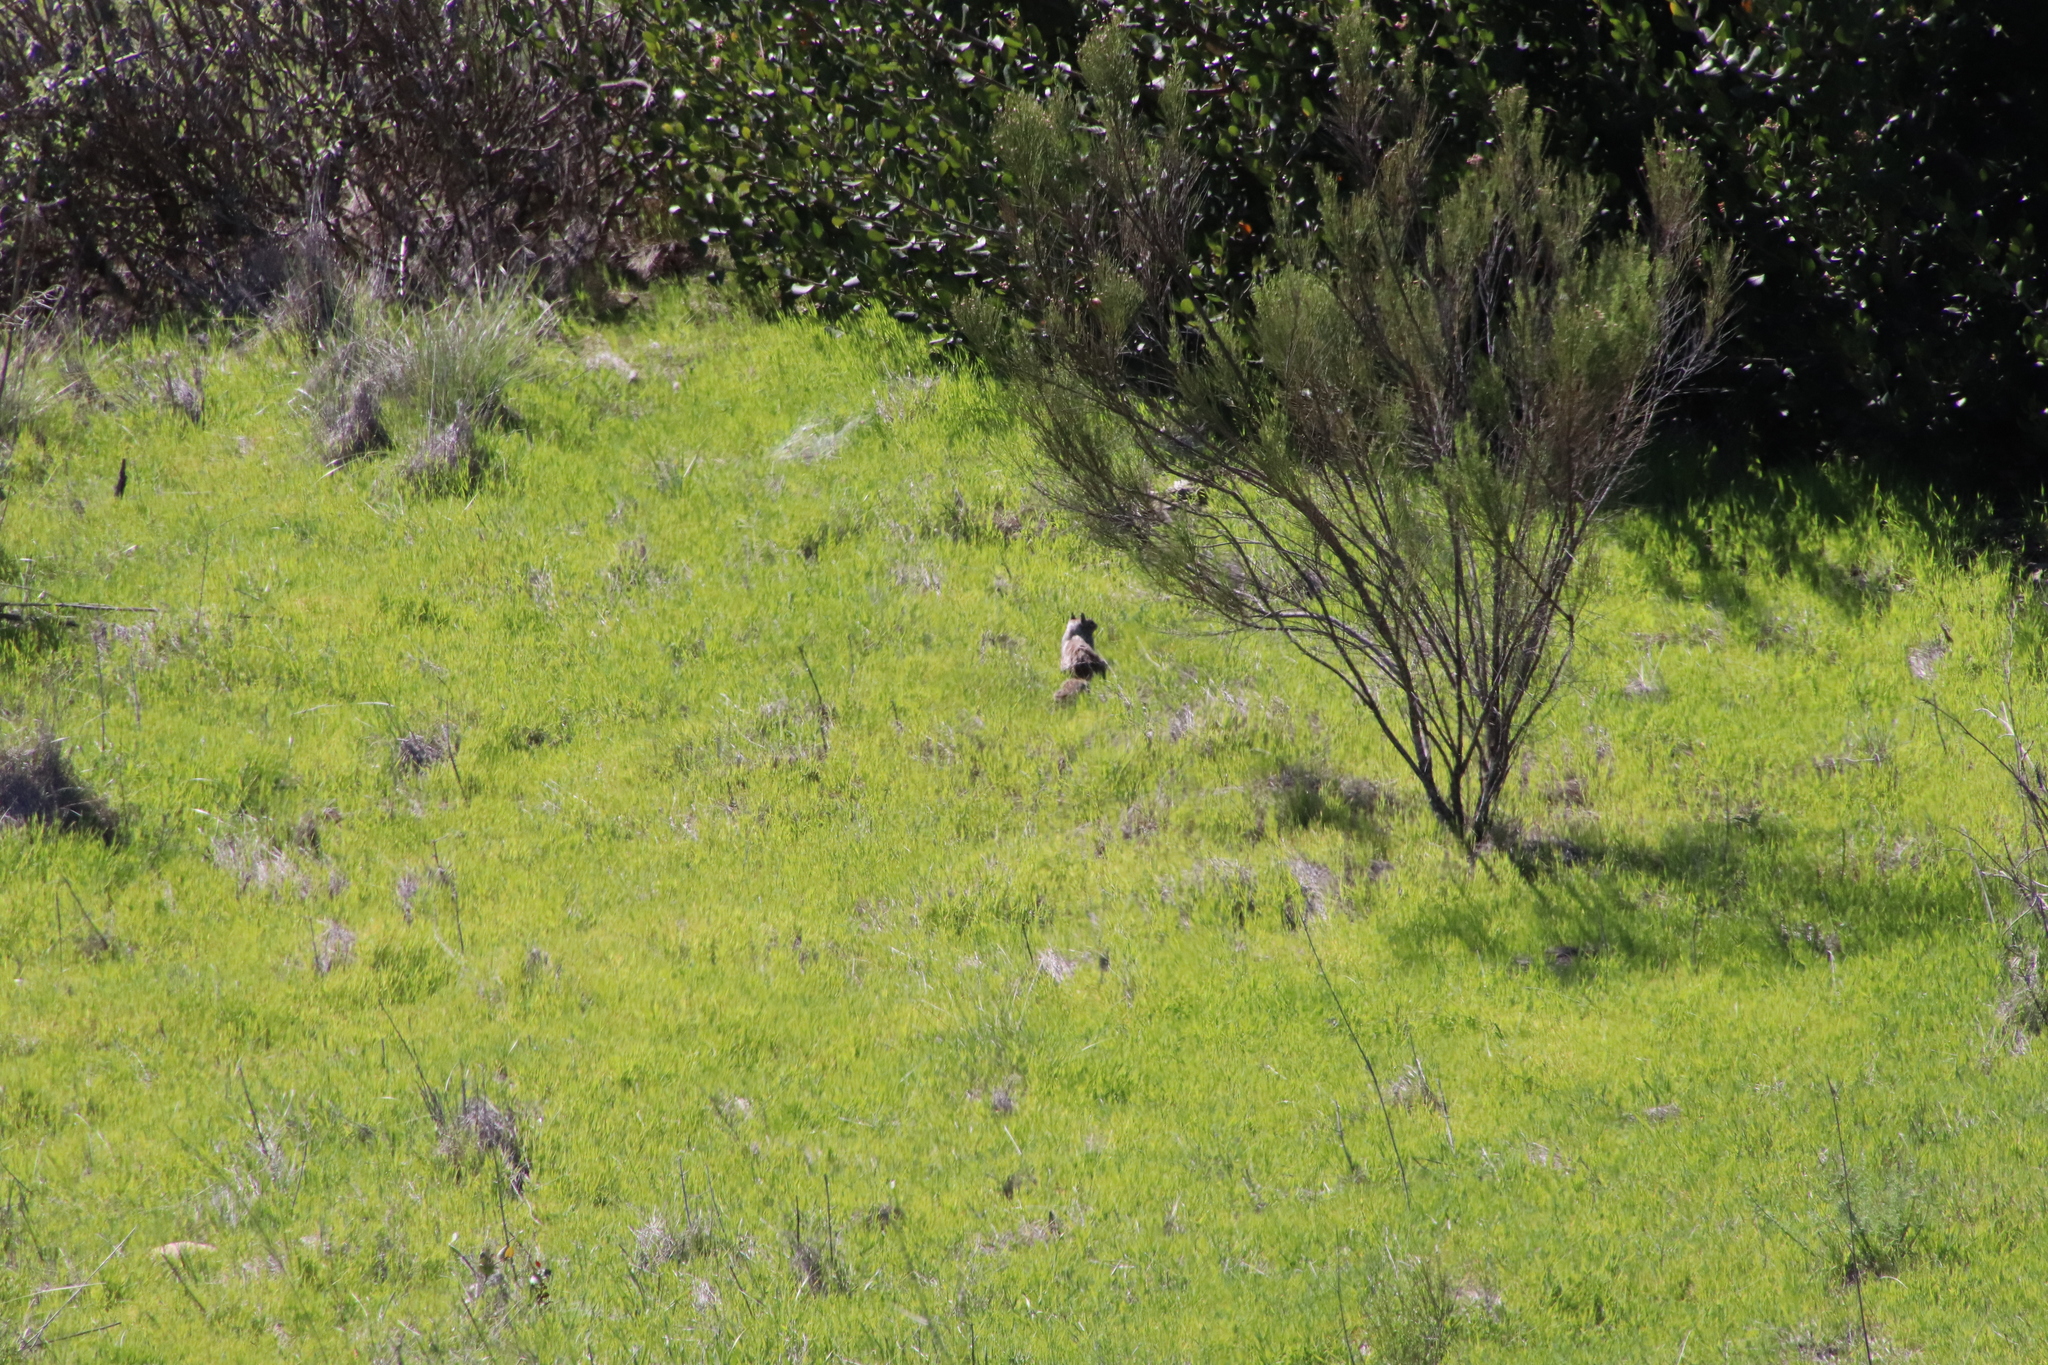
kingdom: Animalia
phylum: Chordata
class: Mammalia
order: Rodentia
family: Sciuridae
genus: Otospermophilus
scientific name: Otospermophilus beecheyi
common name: California ground squirrel
